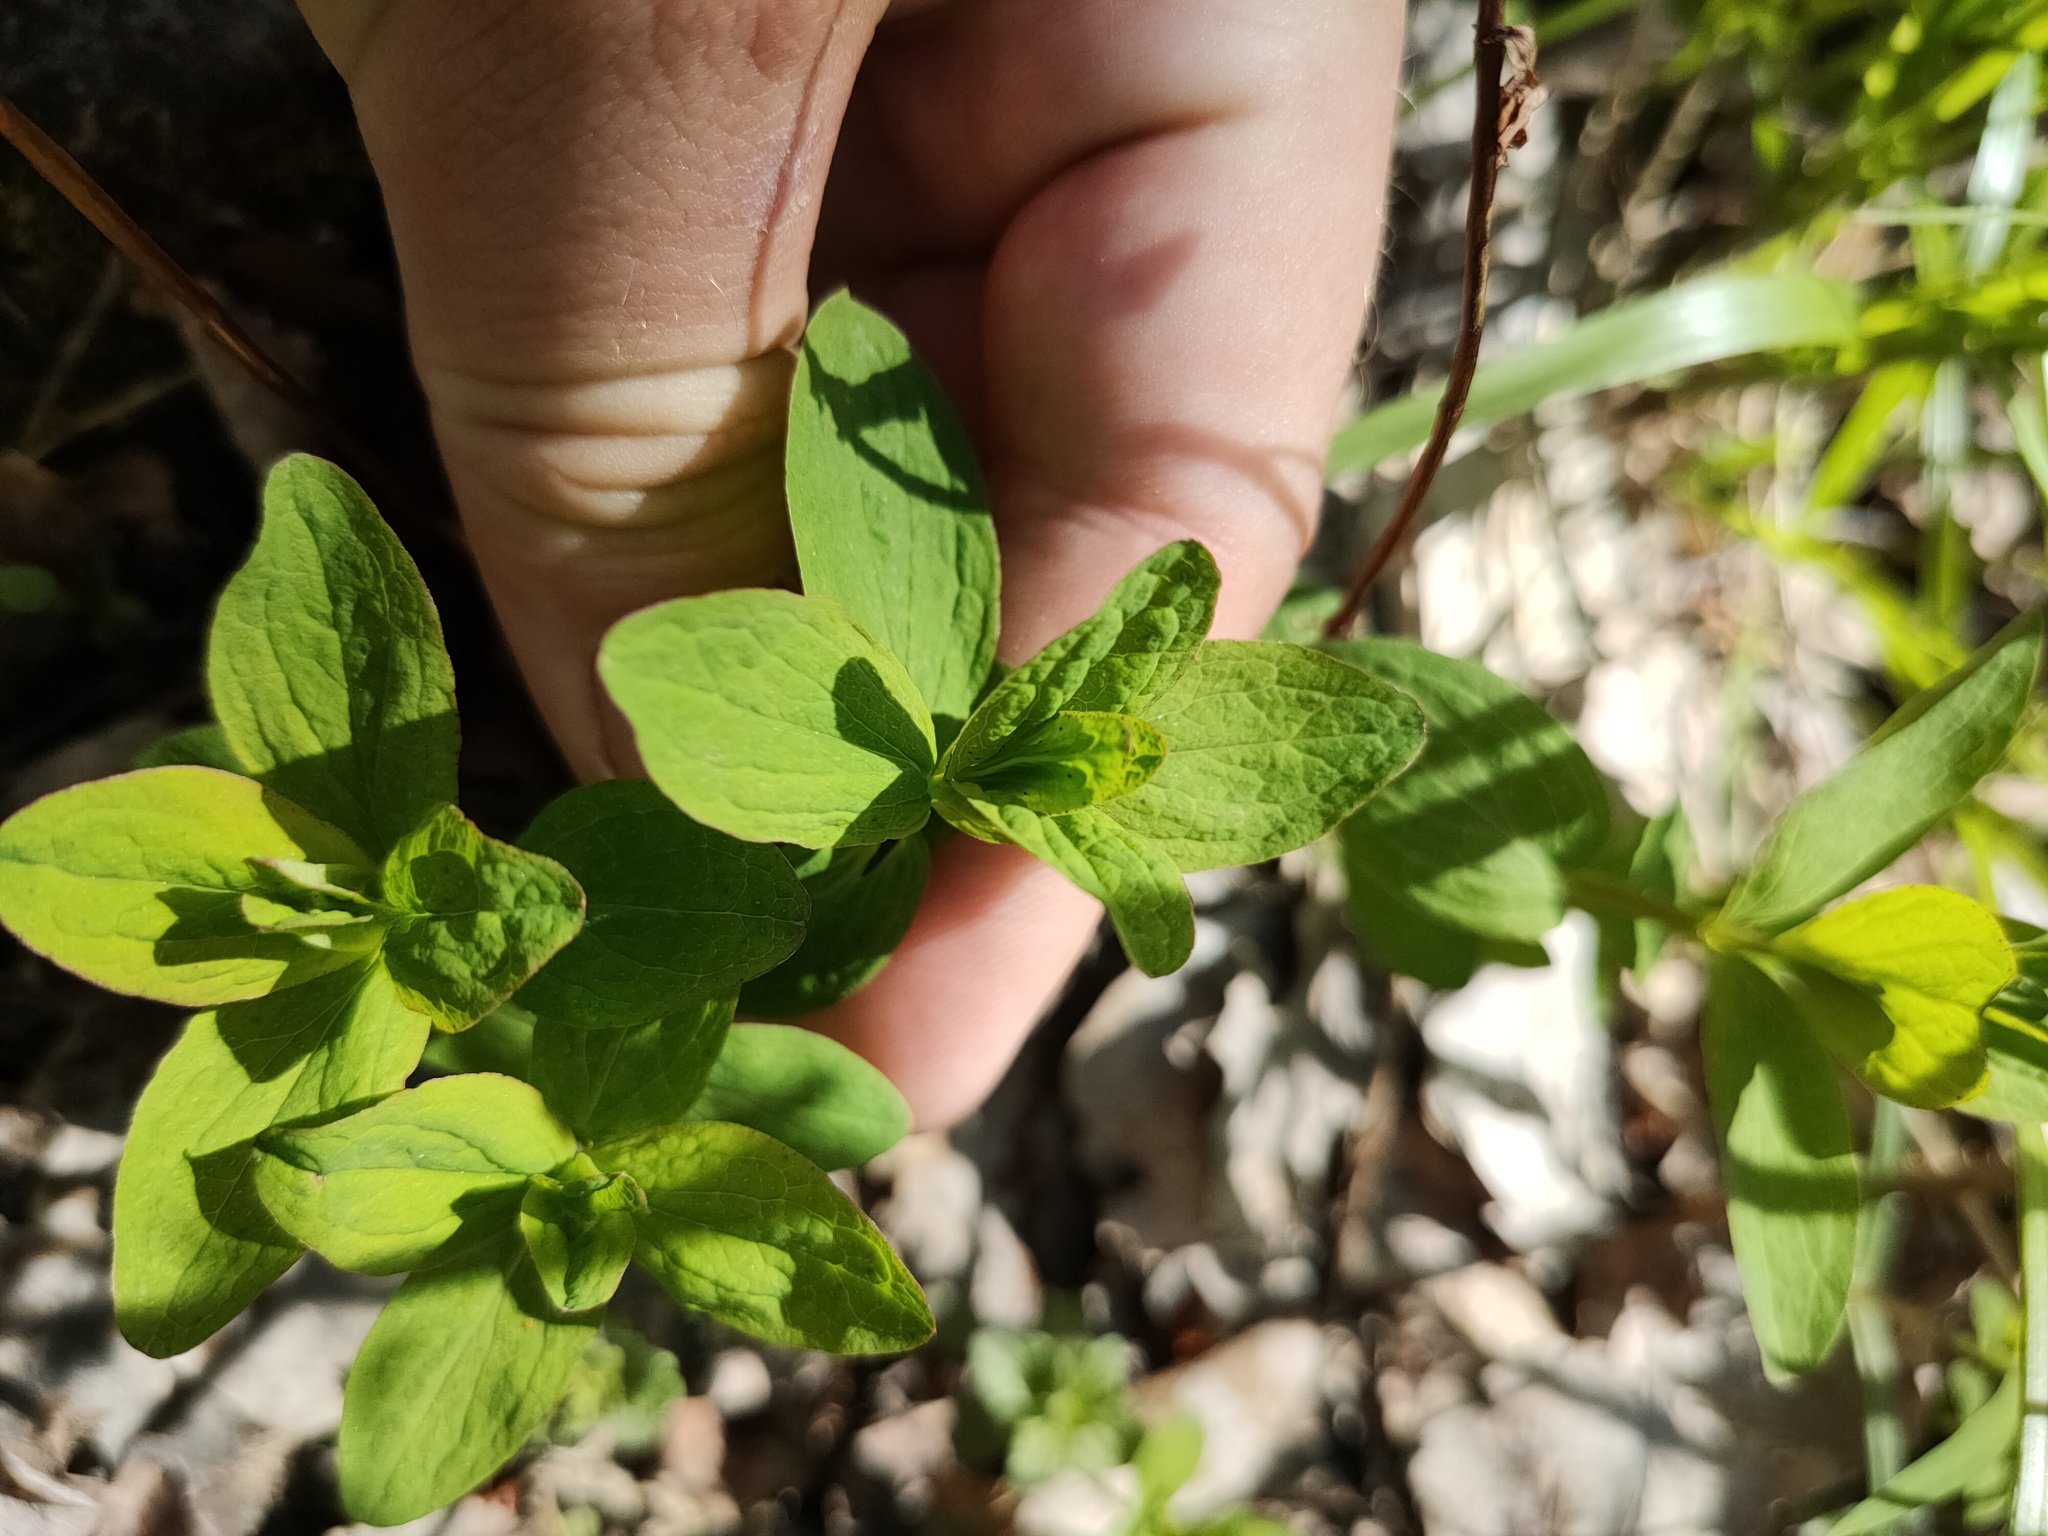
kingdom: Plantae
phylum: Tracheophyta
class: Magnoliopsida
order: Malpighiales
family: Hypericaceae
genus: Hypericum
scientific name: Hypericum maculatum
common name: Imperforate st. john's-wort
